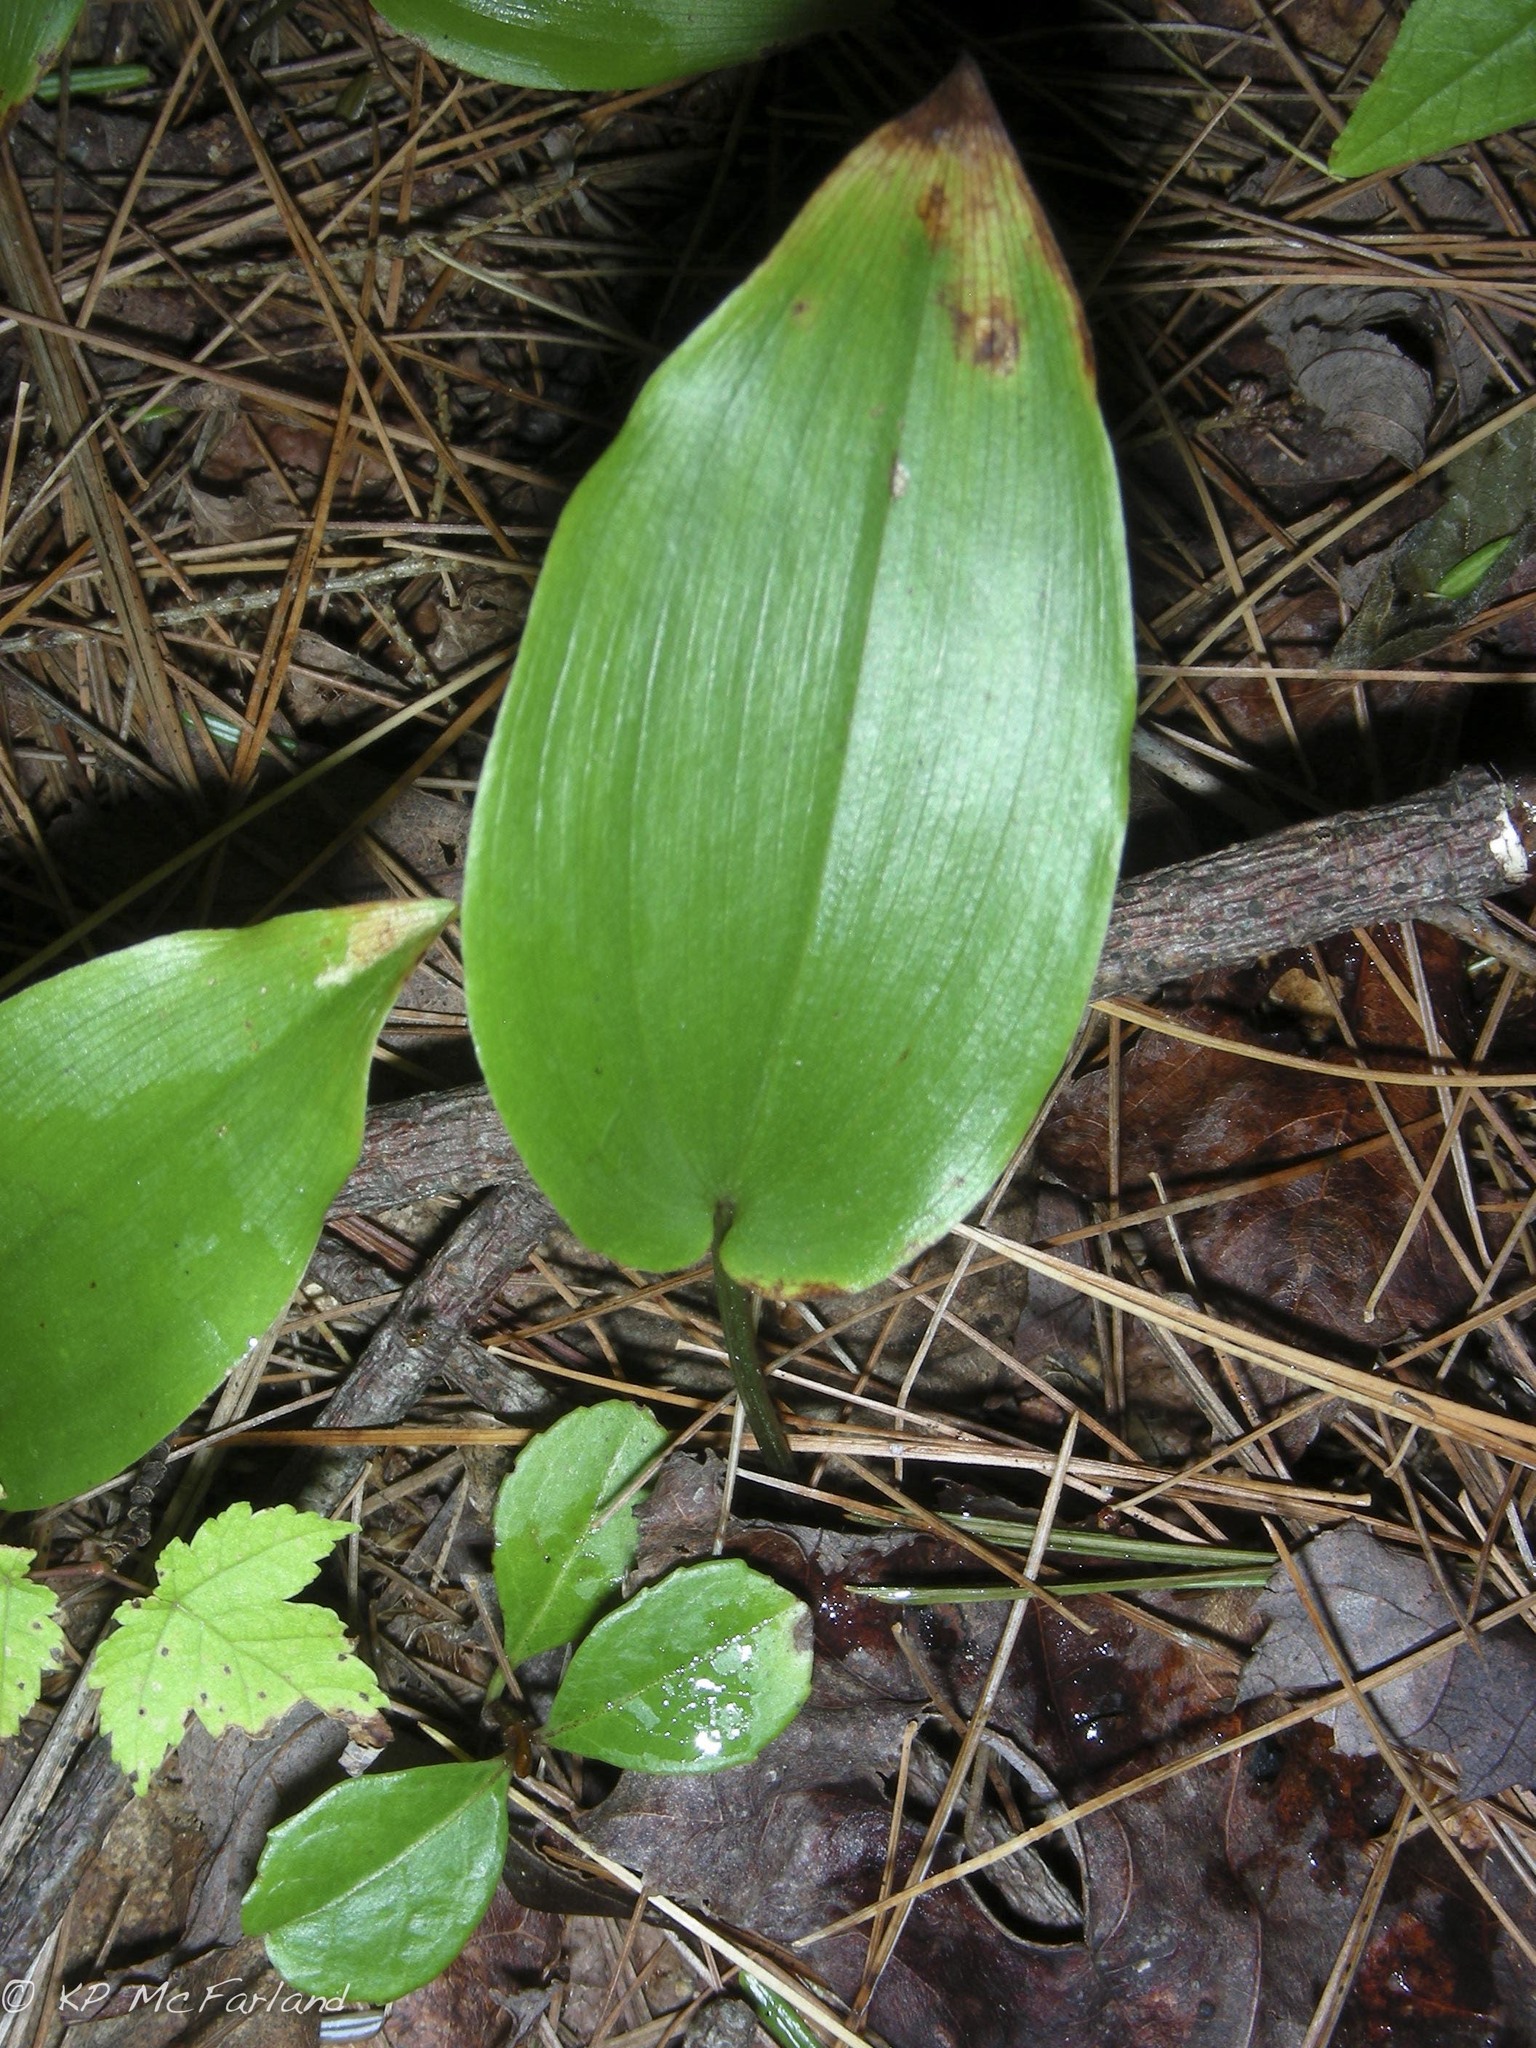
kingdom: Plantae
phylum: Tracheophyta
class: Liliopsida
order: Asparagales
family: Asparagaceae
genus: Maianthemum
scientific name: Maianthemum canadense
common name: False lily-of-the-valley
